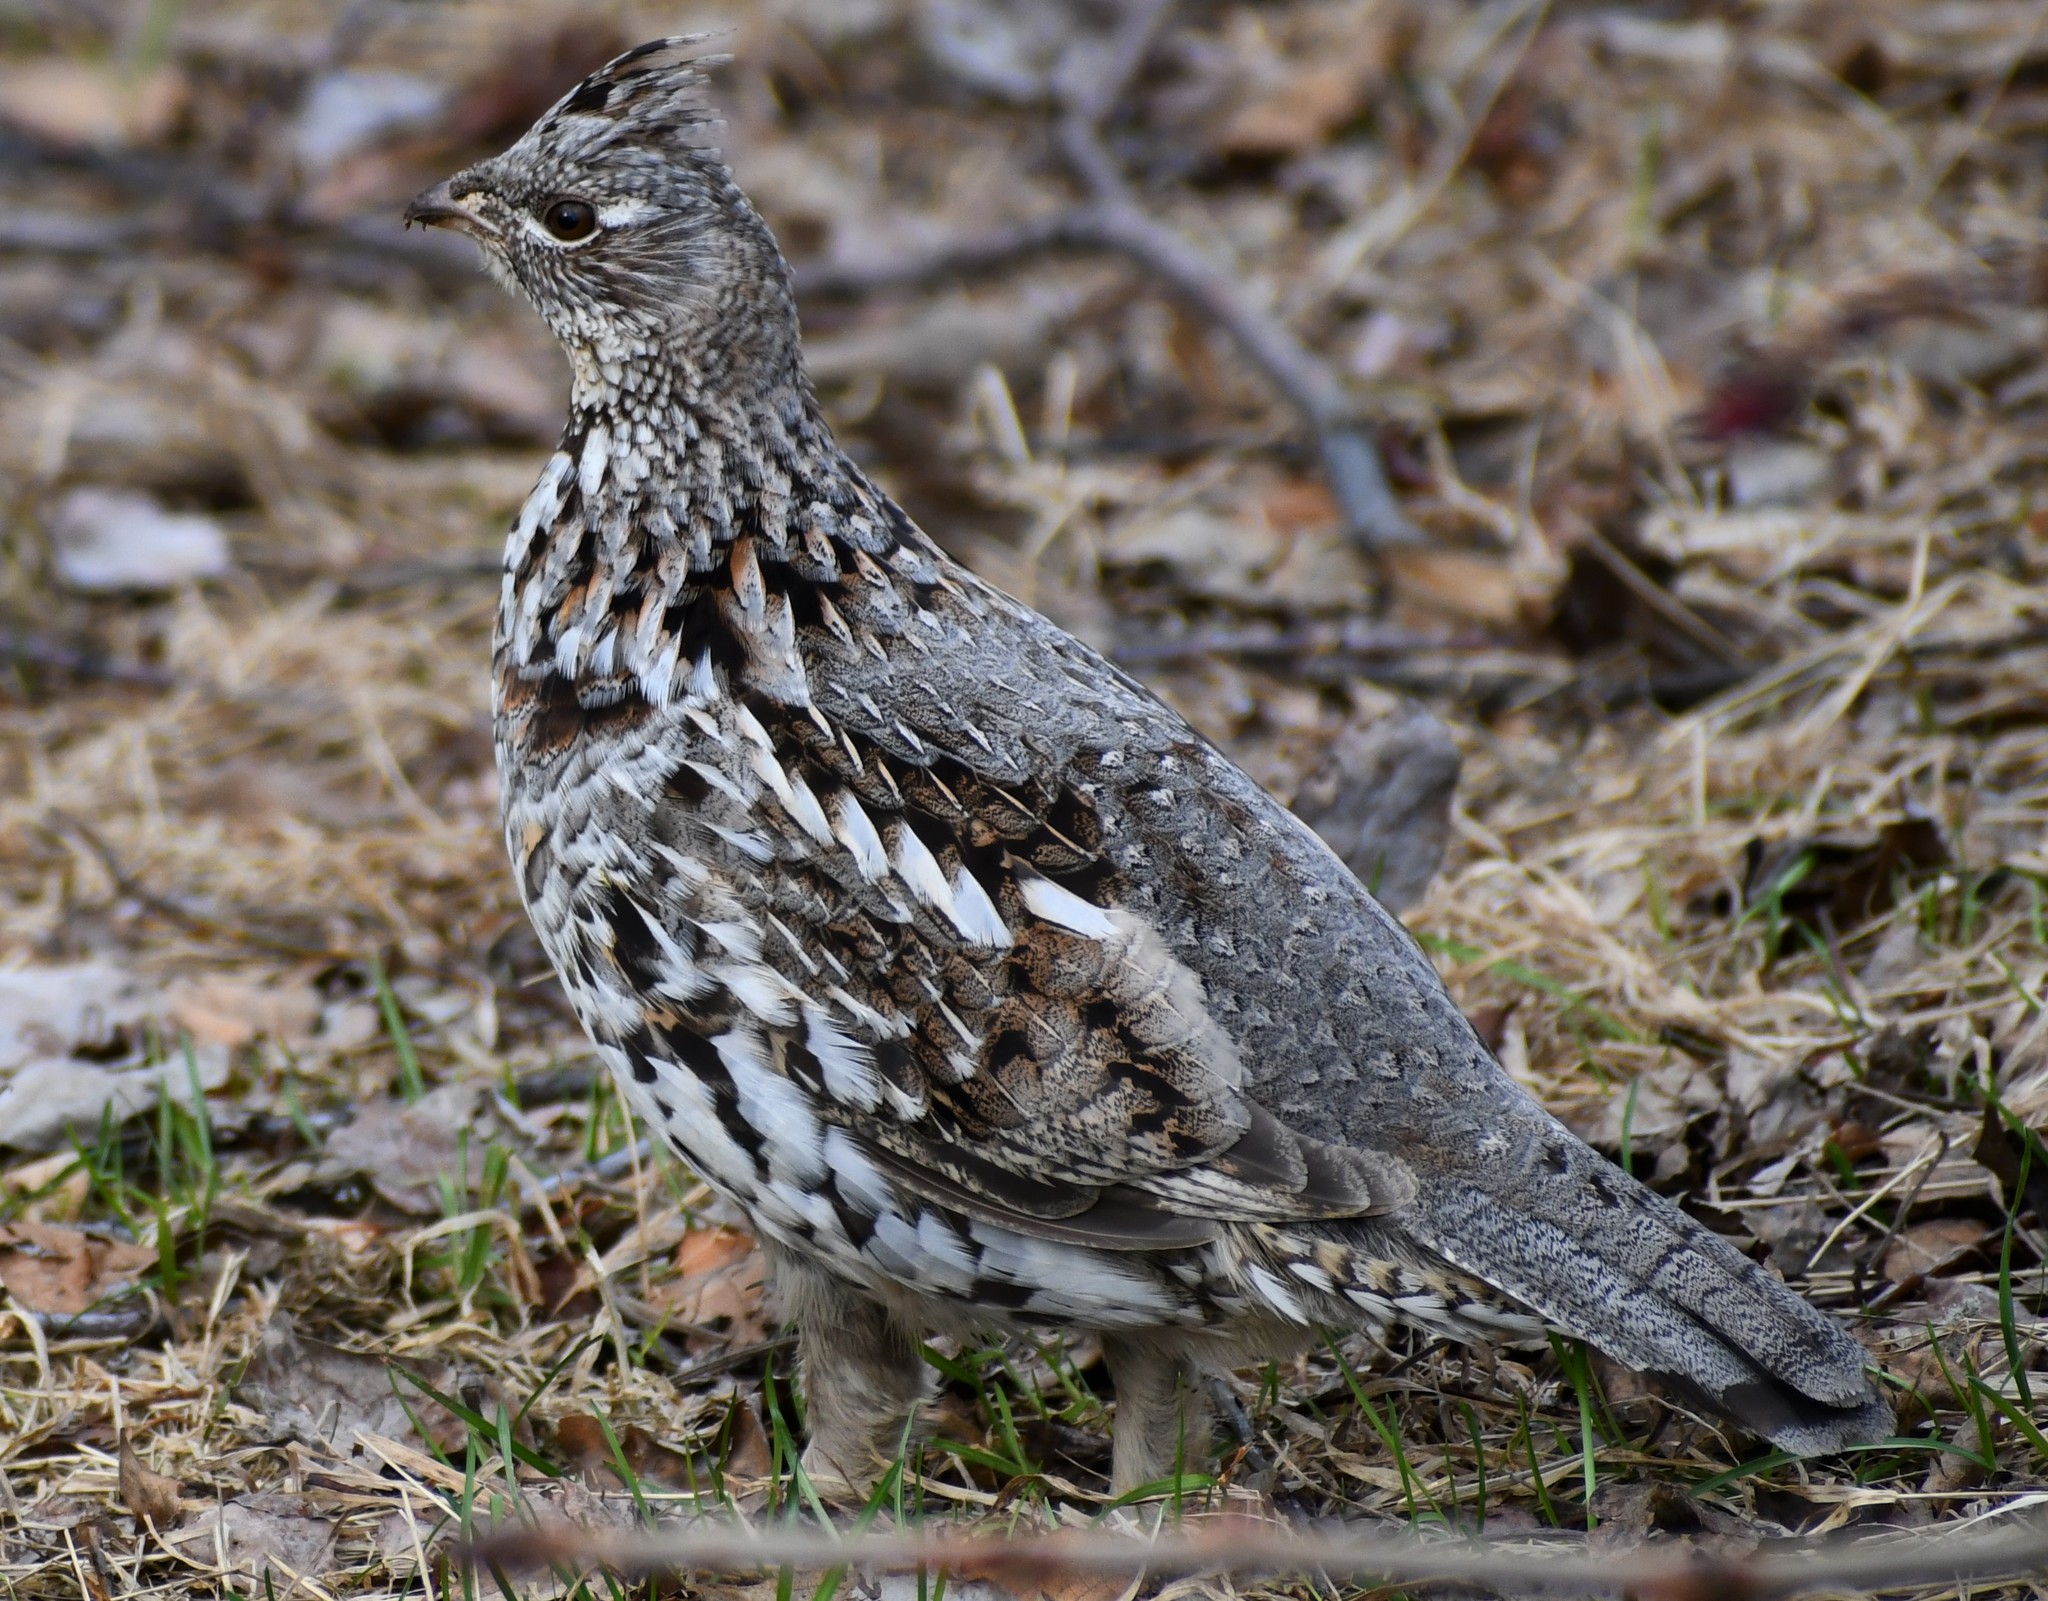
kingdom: Animalia
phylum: Chordata
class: Aves
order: Galliformes
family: Phasianidae
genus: Bonasa
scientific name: Bonasa umbellus
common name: Ruffed grouse
